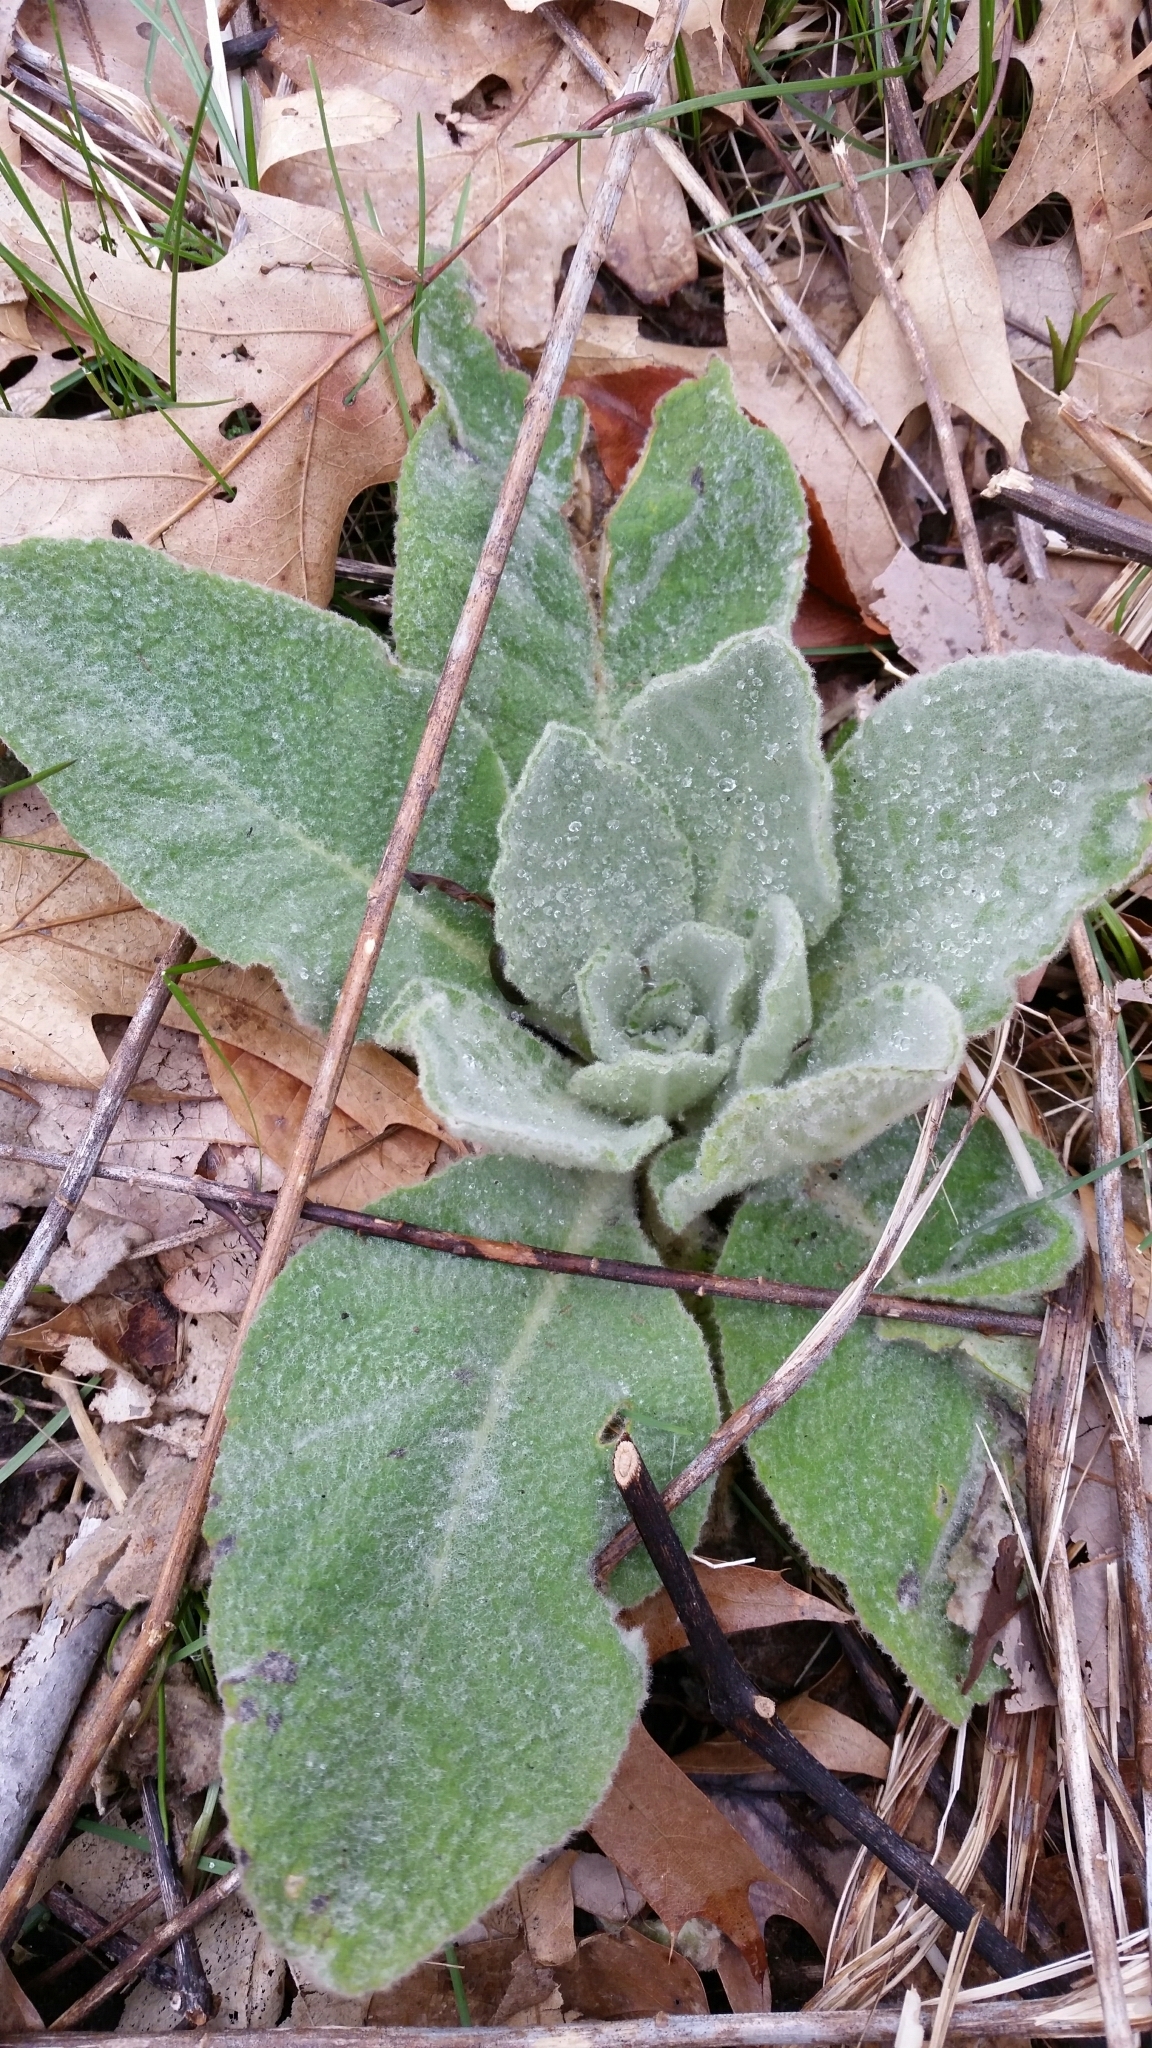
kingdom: Plantae
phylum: Tracheophyta
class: Magnoliopsida
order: Lamiales
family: Scrophulariaceae
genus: Verbascum
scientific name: Verbascum thapsus
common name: Common mullein
